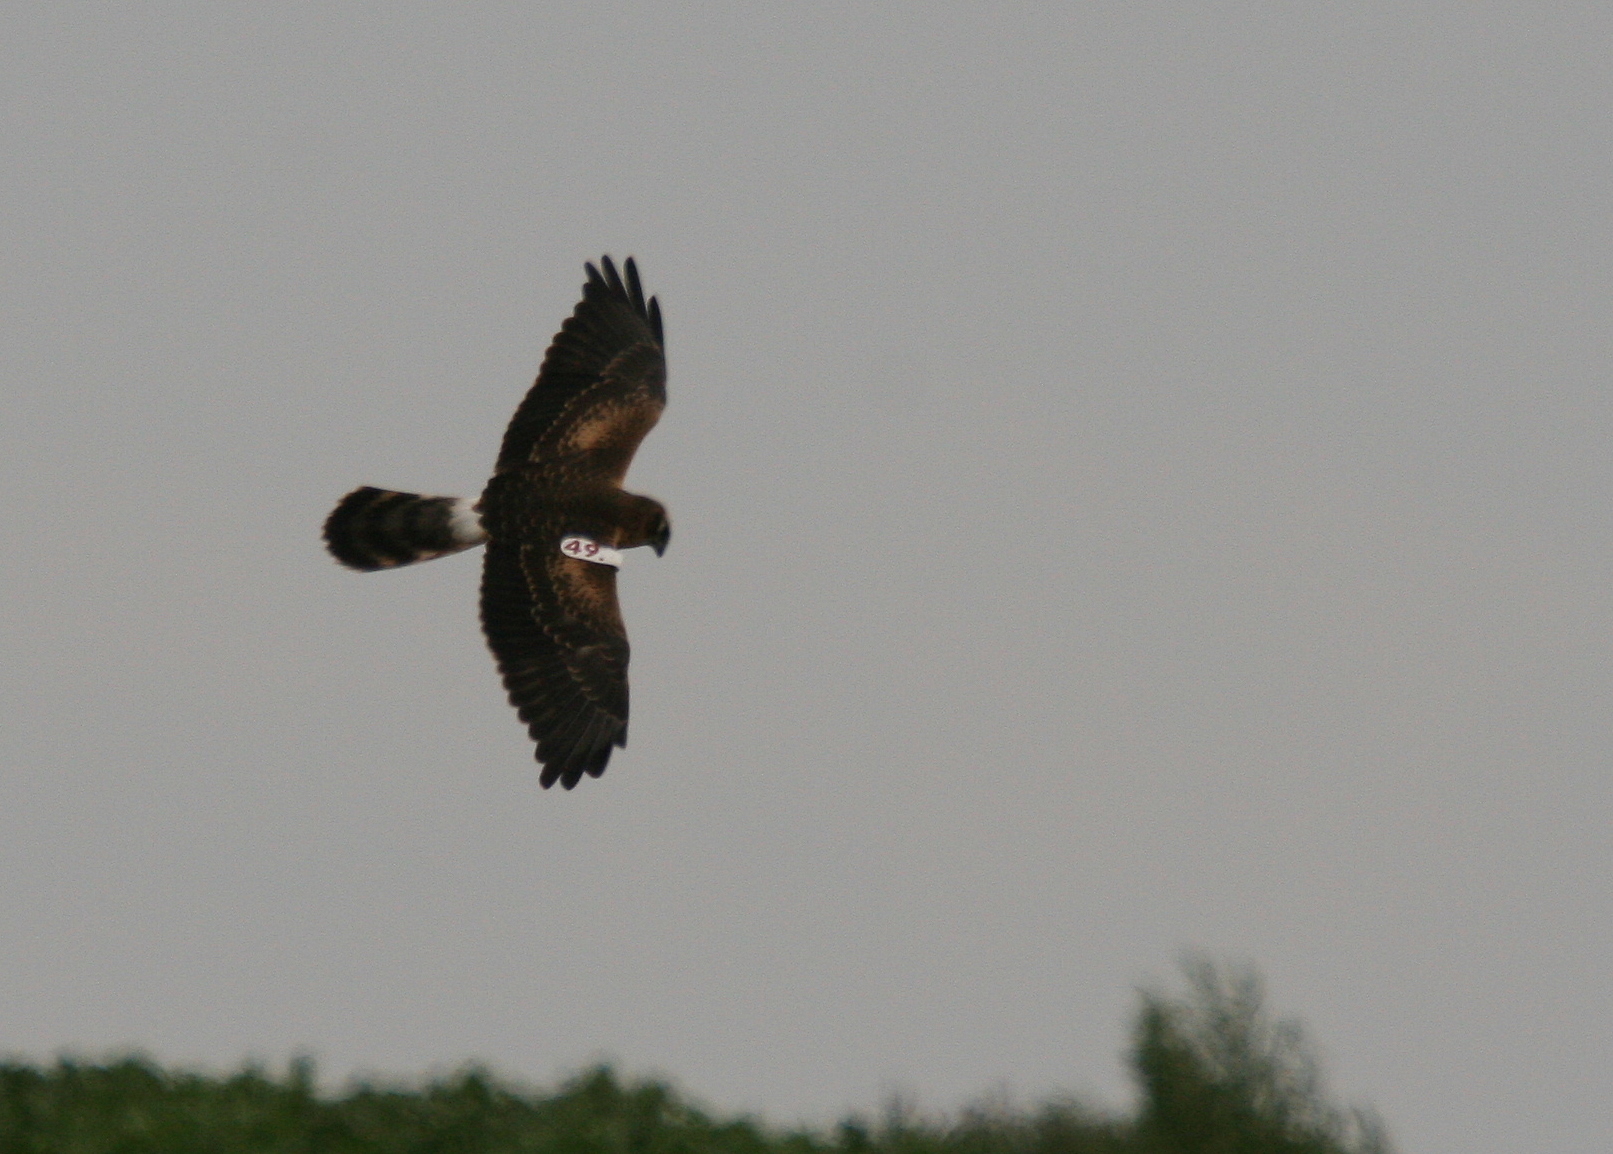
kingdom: Animalia
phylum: Chordata
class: Aves
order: Accipitriformes
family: Accipitridae
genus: Circus
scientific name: Circus pygargus
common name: Montagu's harrier
